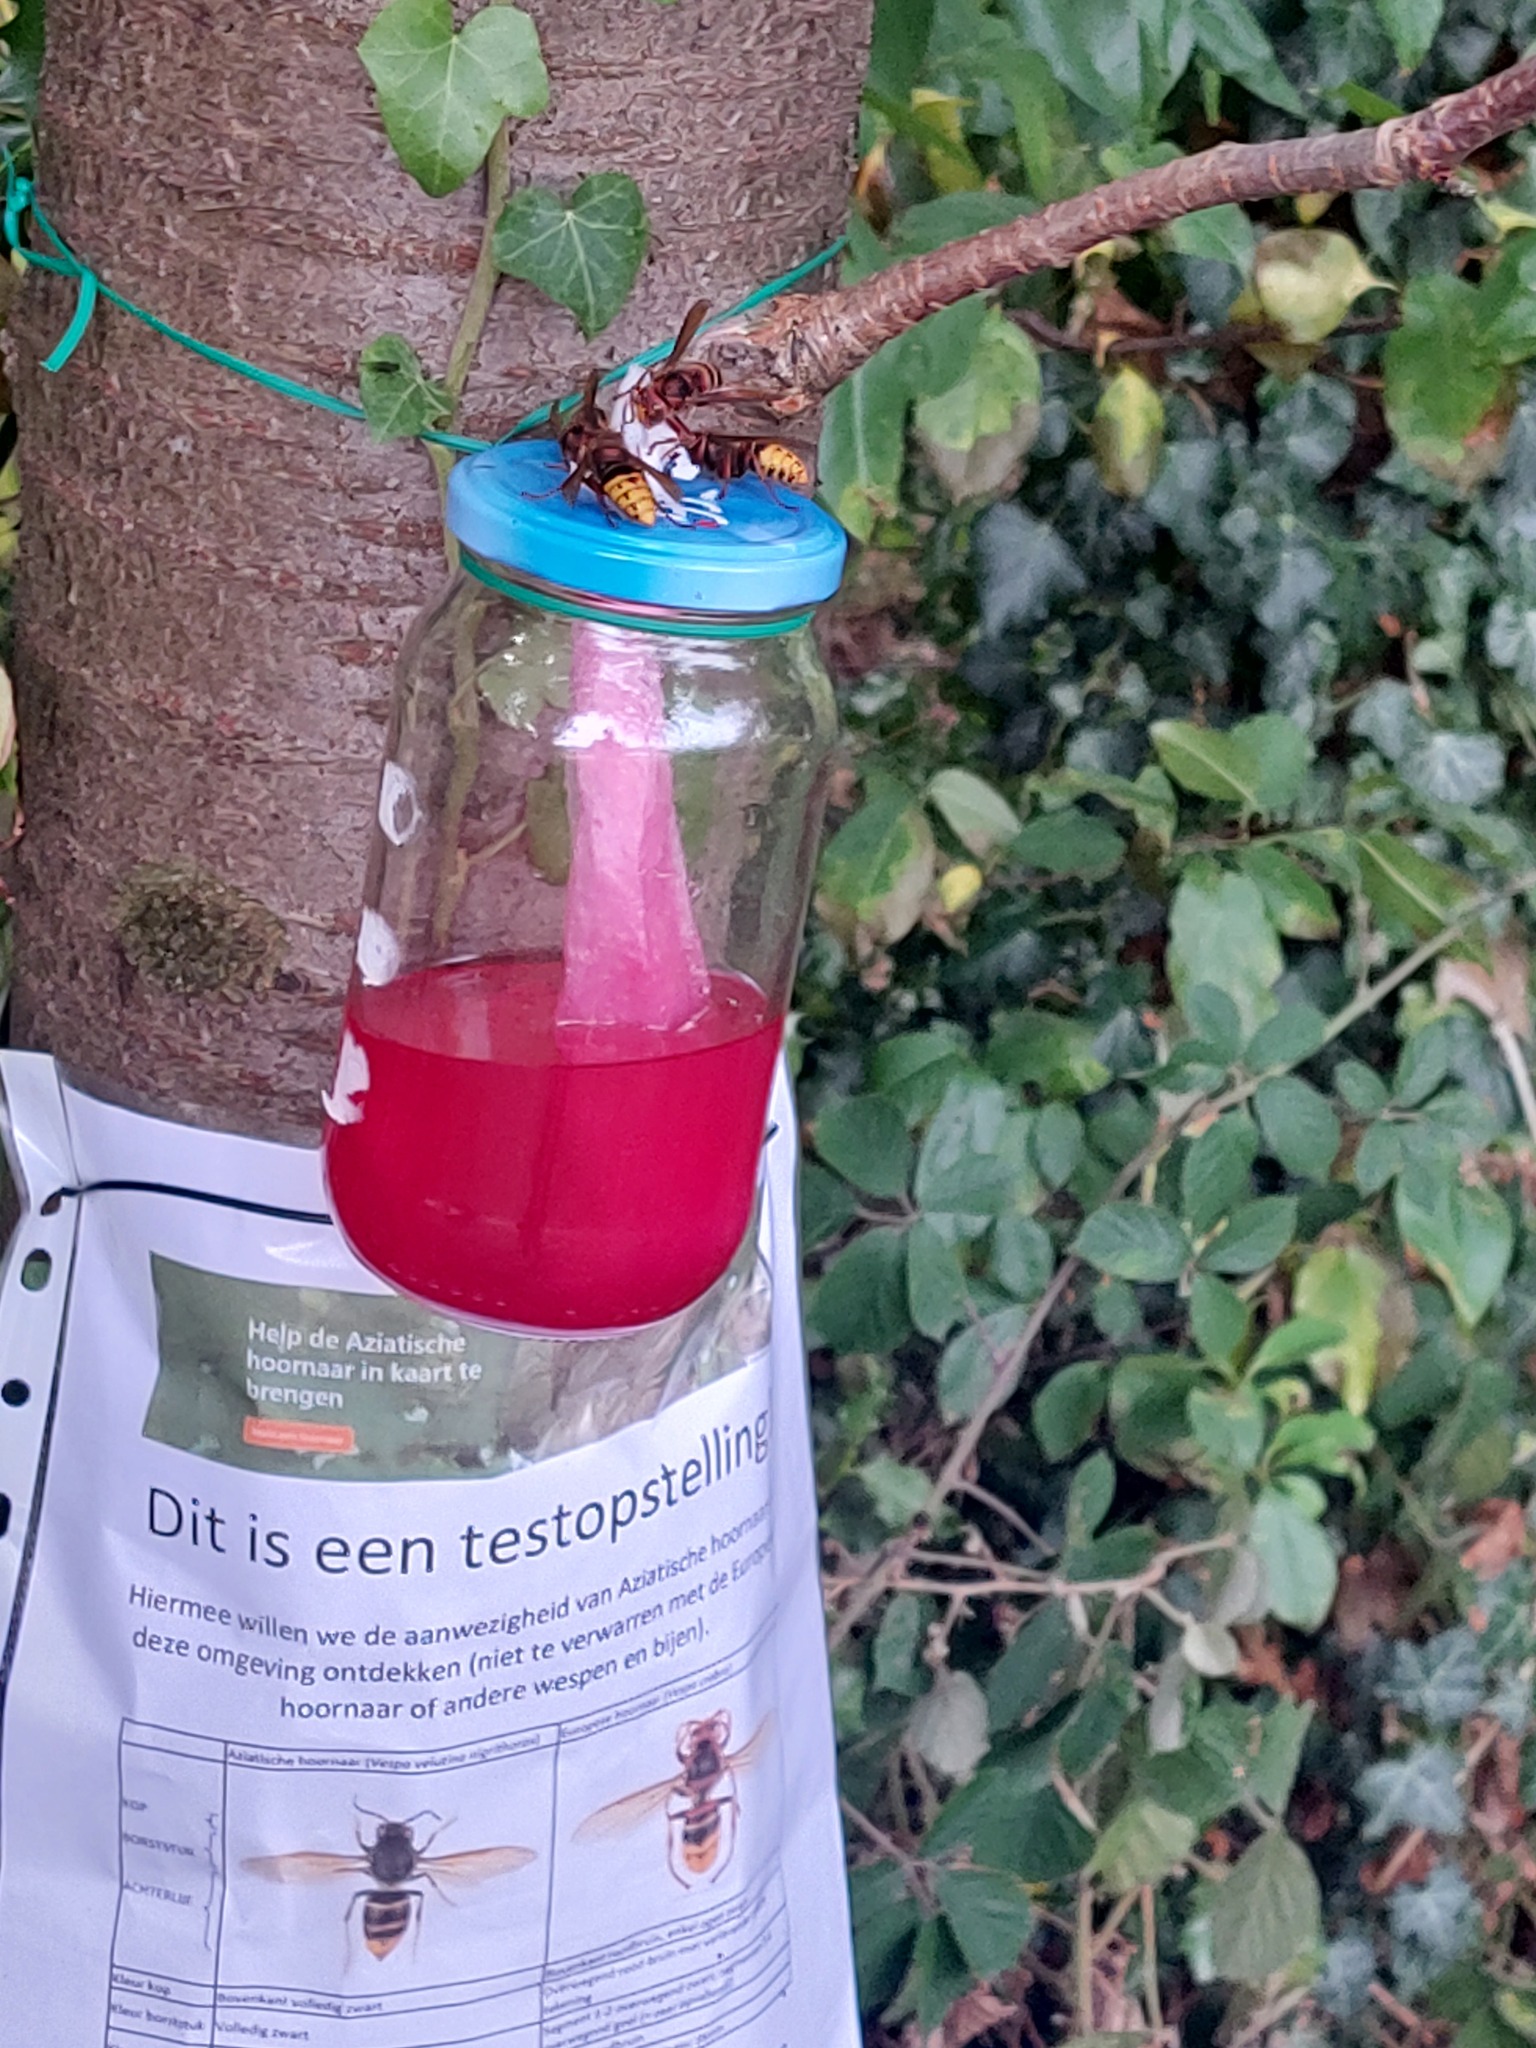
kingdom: Animalia
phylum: Arthropoda
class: Insecta
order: Hymenoptera
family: Vespidae
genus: Vespa
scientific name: Vespa crabro
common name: Hornet
